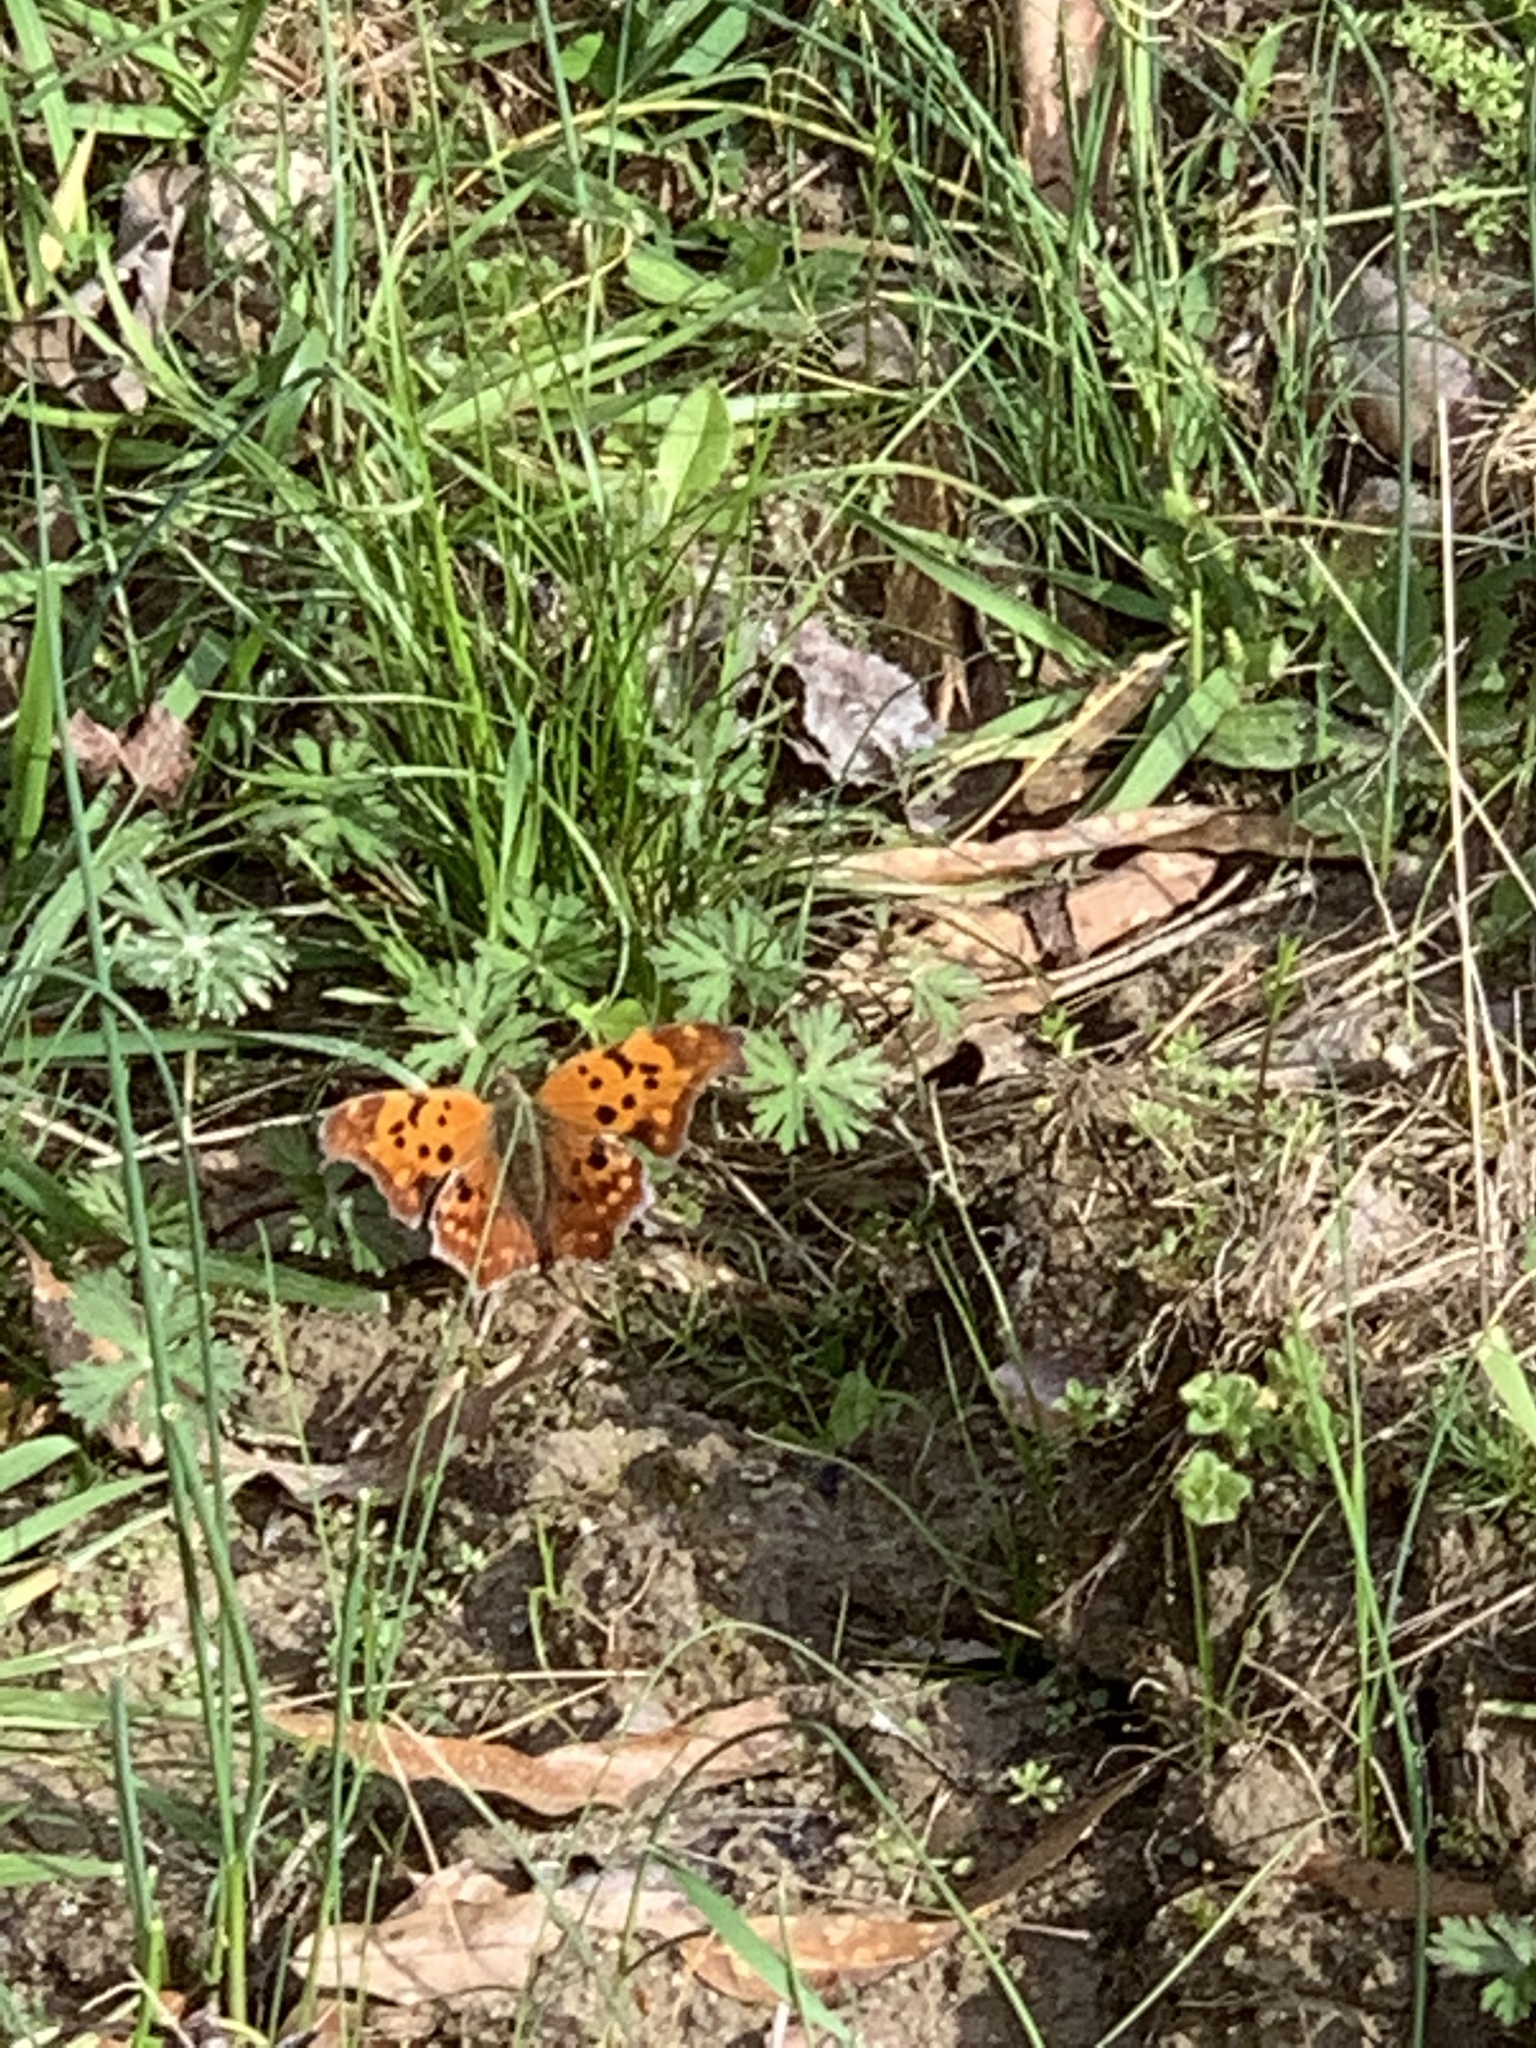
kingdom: Animalia
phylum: Arthropoda
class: Insecta
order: Lepidoptera
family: Nymphalidae
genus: Polygonia
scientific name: Polygonia interrogationis
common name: Question mark
